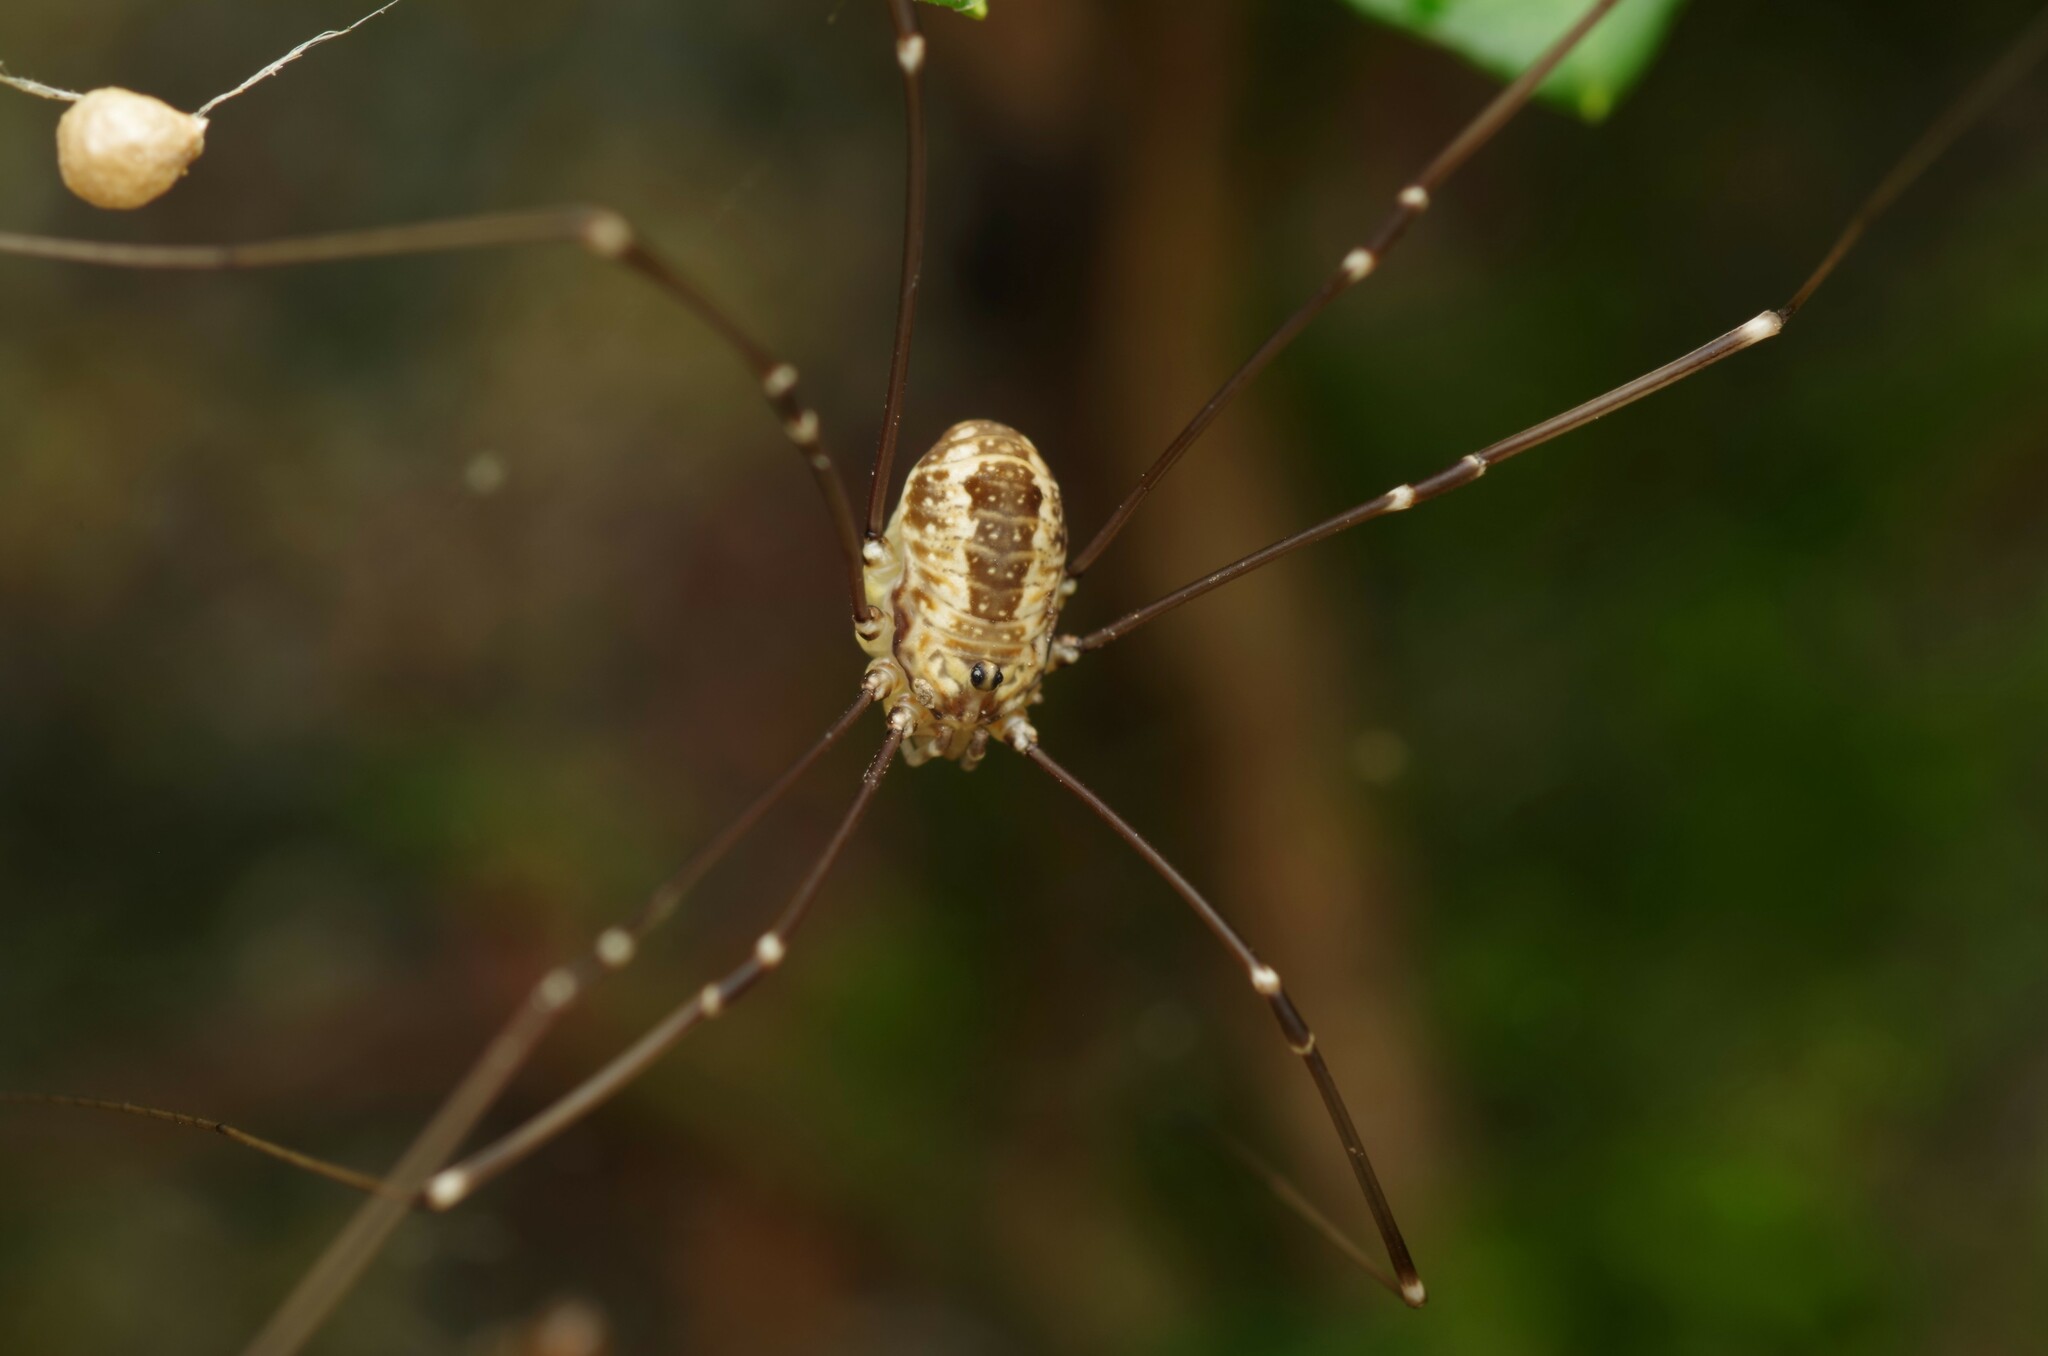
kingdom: Animalia
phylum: Arthropoda
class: Arachnida
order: Opiliones
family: Sclerosomatidae
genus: Leiobunum
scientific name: Leiobunum rotundum
